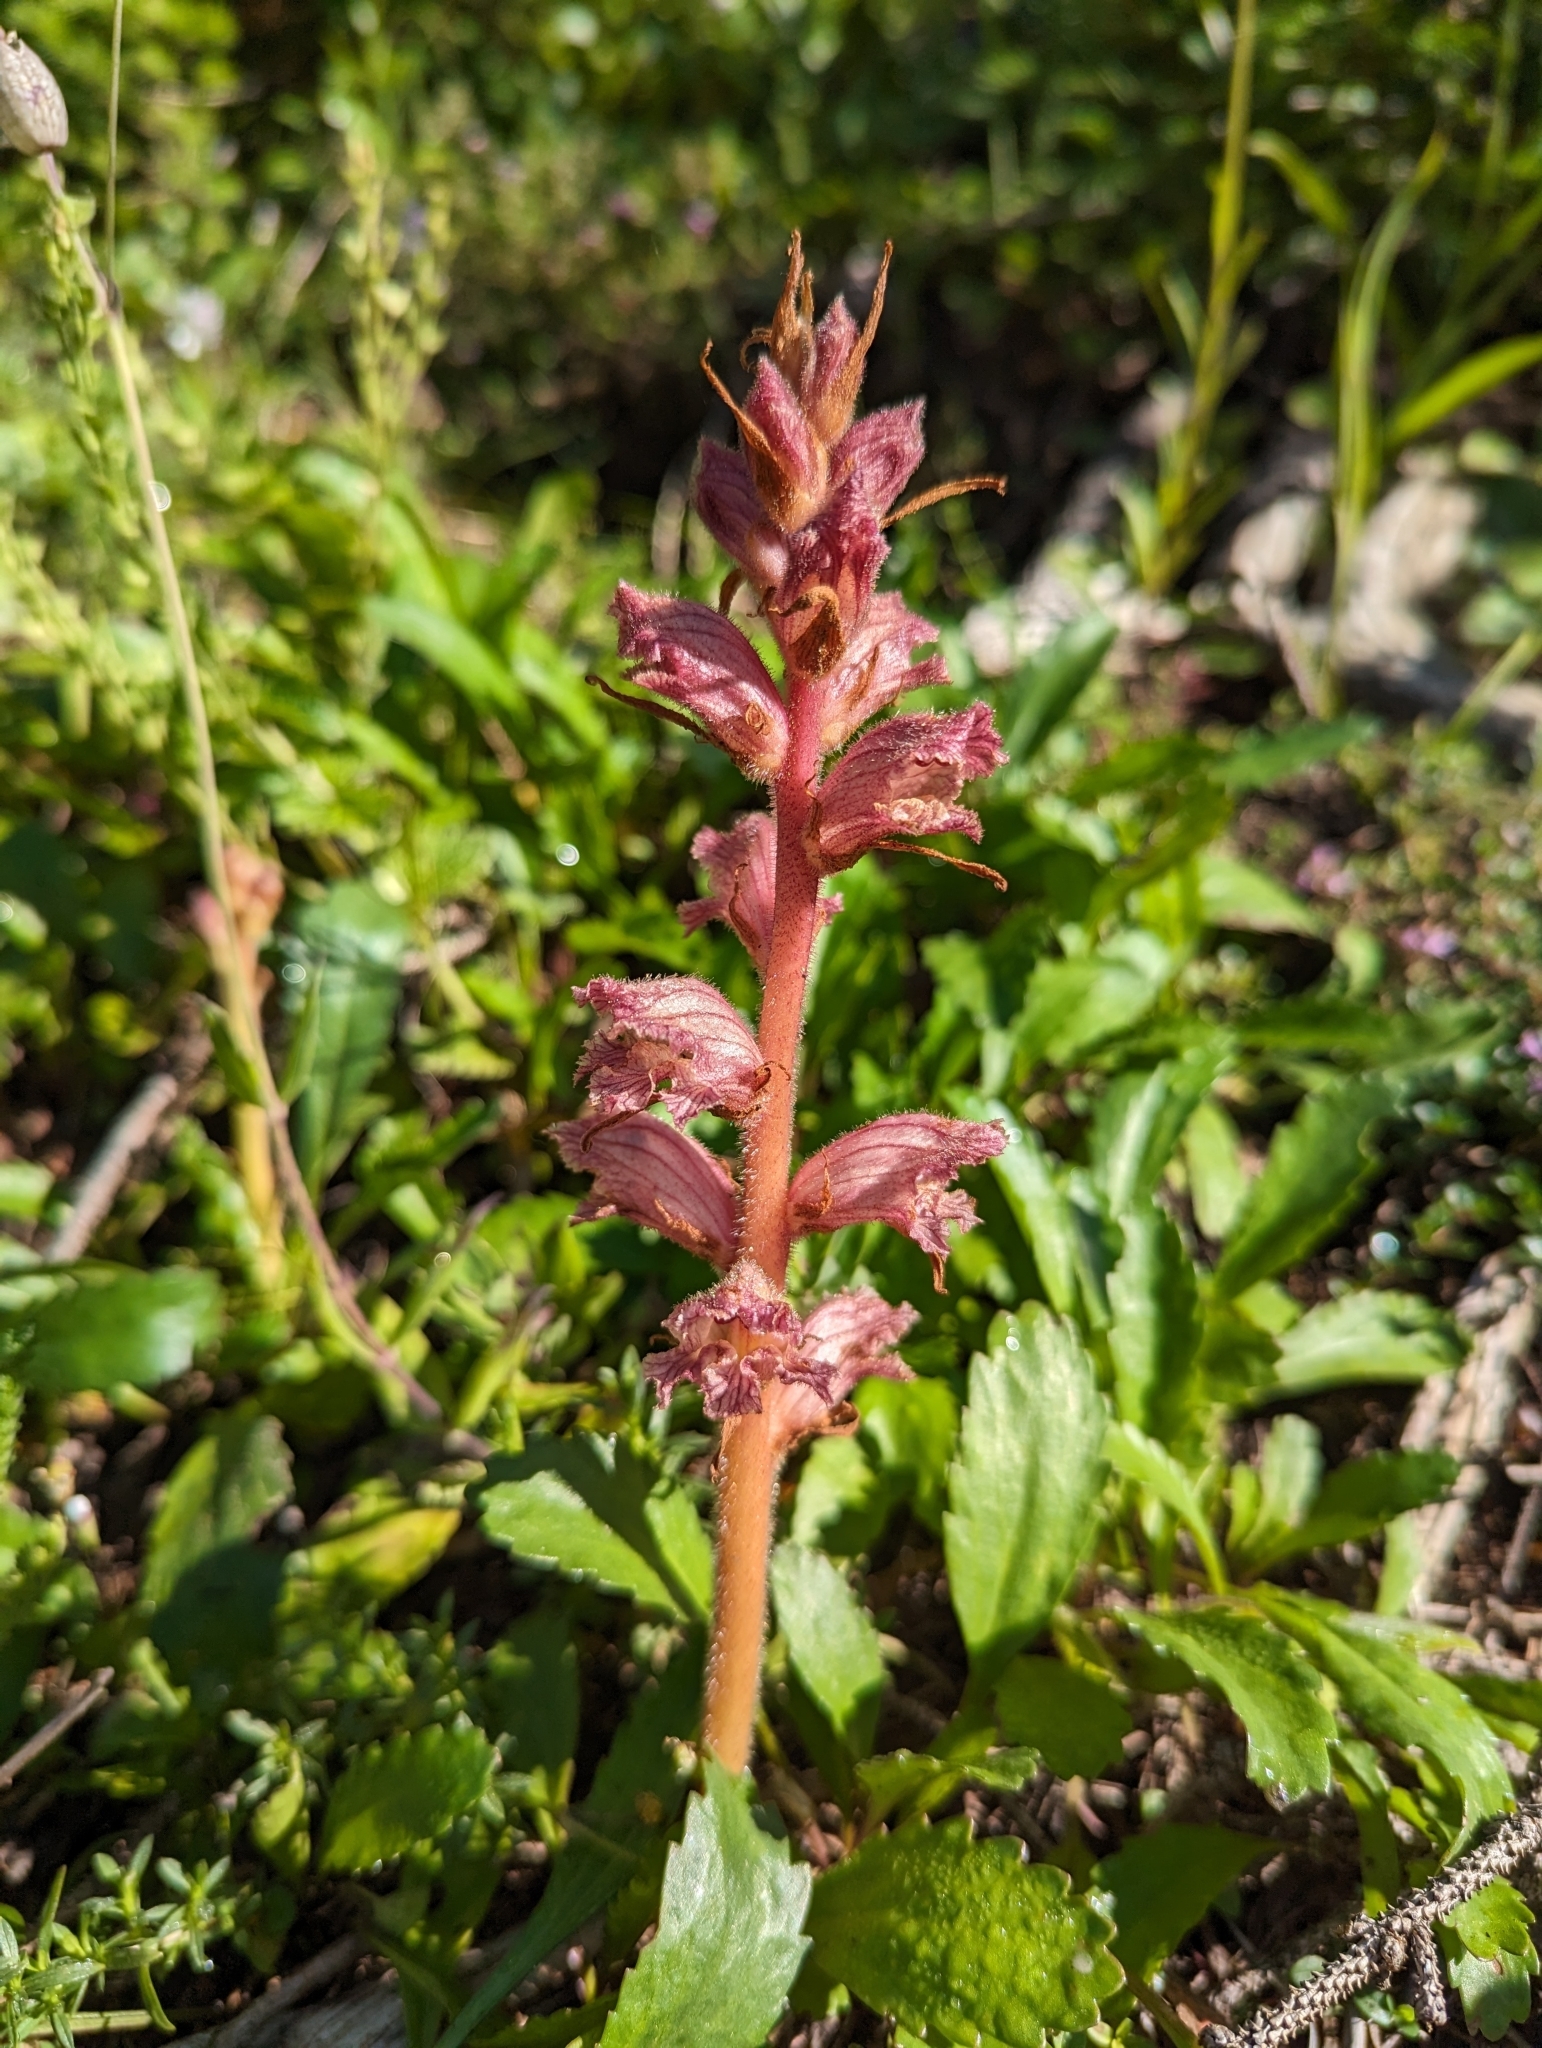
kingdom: Plantae
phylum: Tracheophyta
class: Magnoliopsida
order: Lamiales
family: Orobanchaceae
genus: Orobanche
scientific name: Orobanche alba
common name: Thyme broomrape
